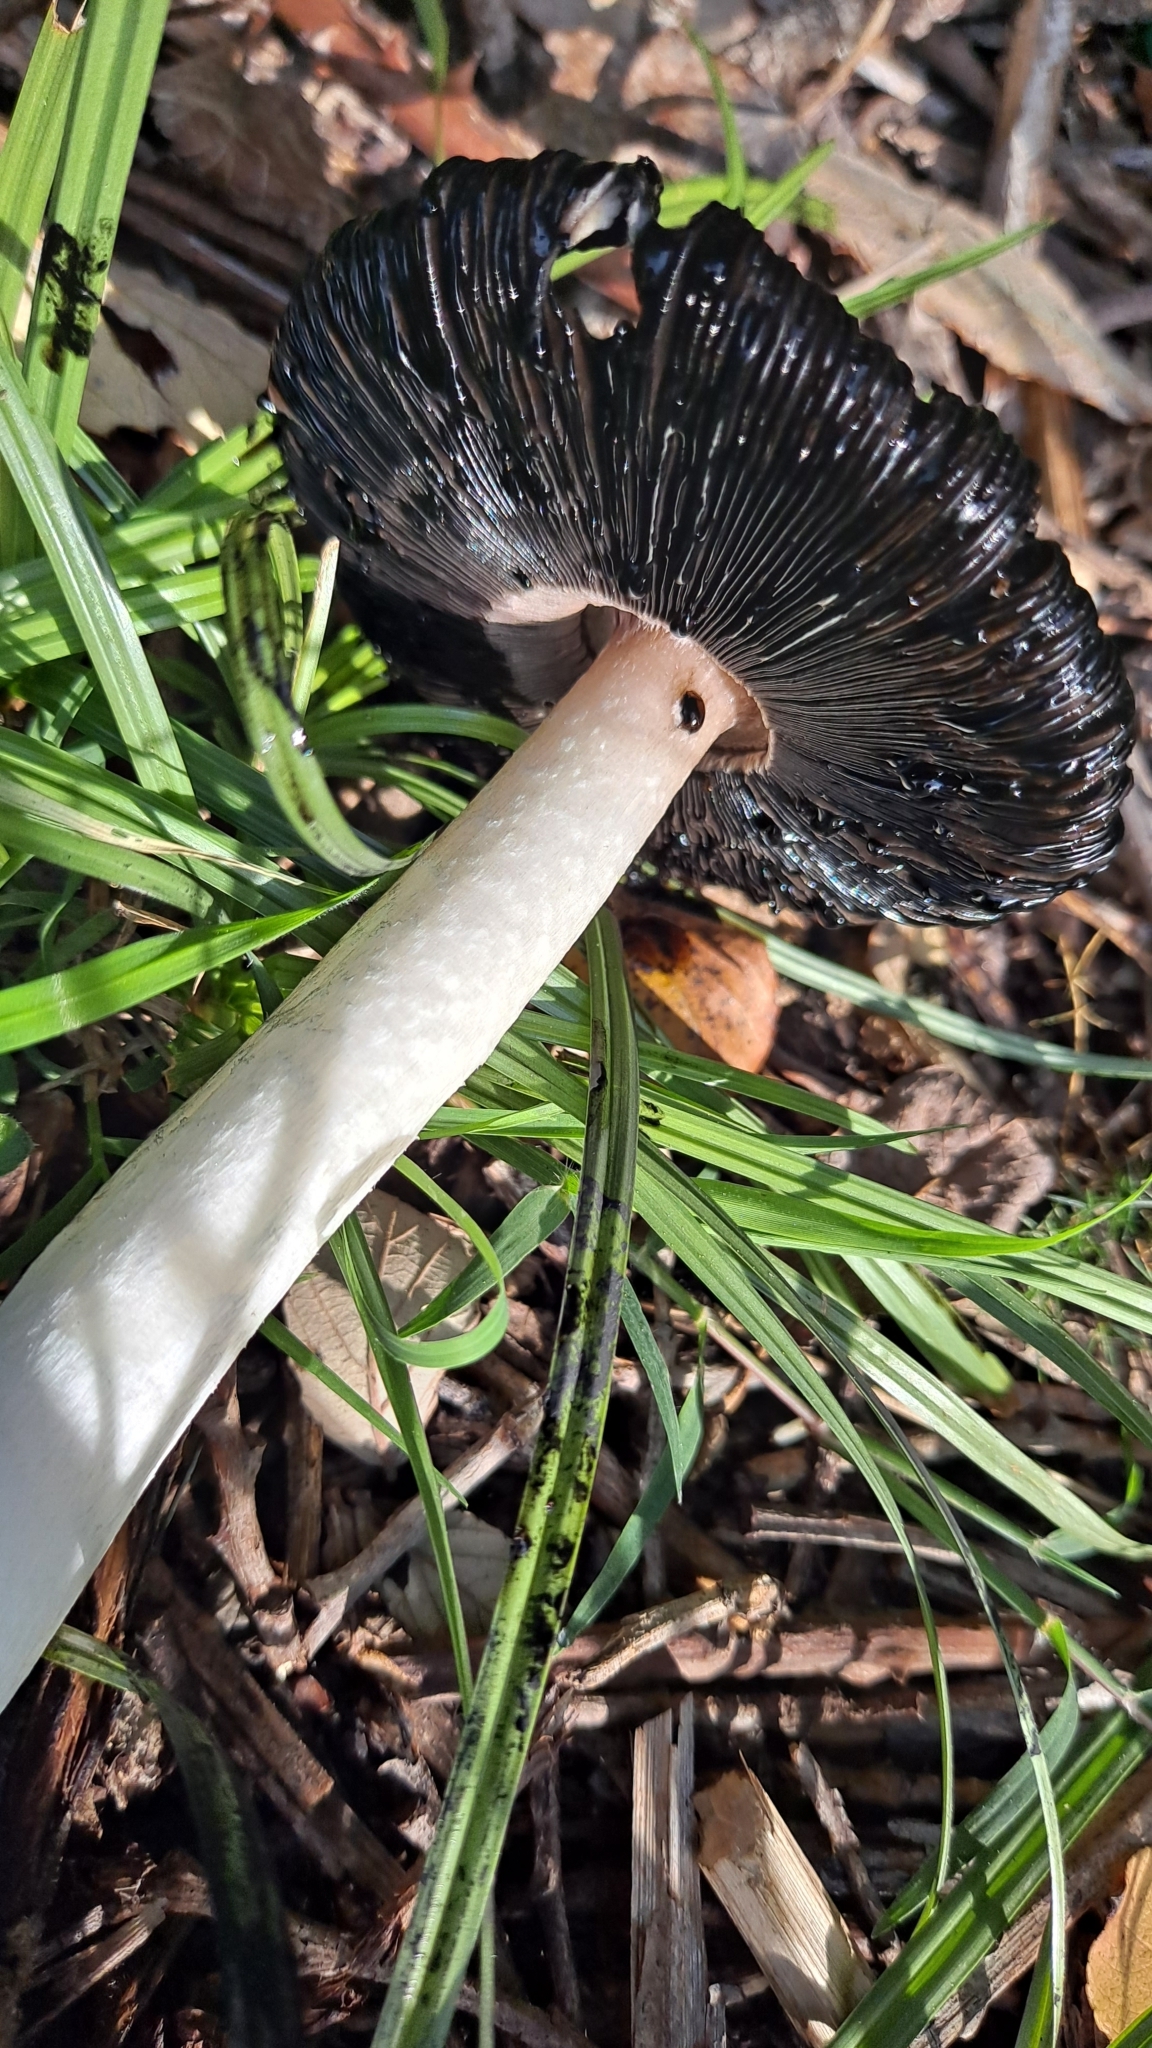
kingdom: Fungi
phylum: Basidiomycota
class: Agaricomycetes
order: Agaricales
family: Agaricaceae
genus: Coprinus
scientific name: Coprinus comatus
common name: Lawyer's wig
